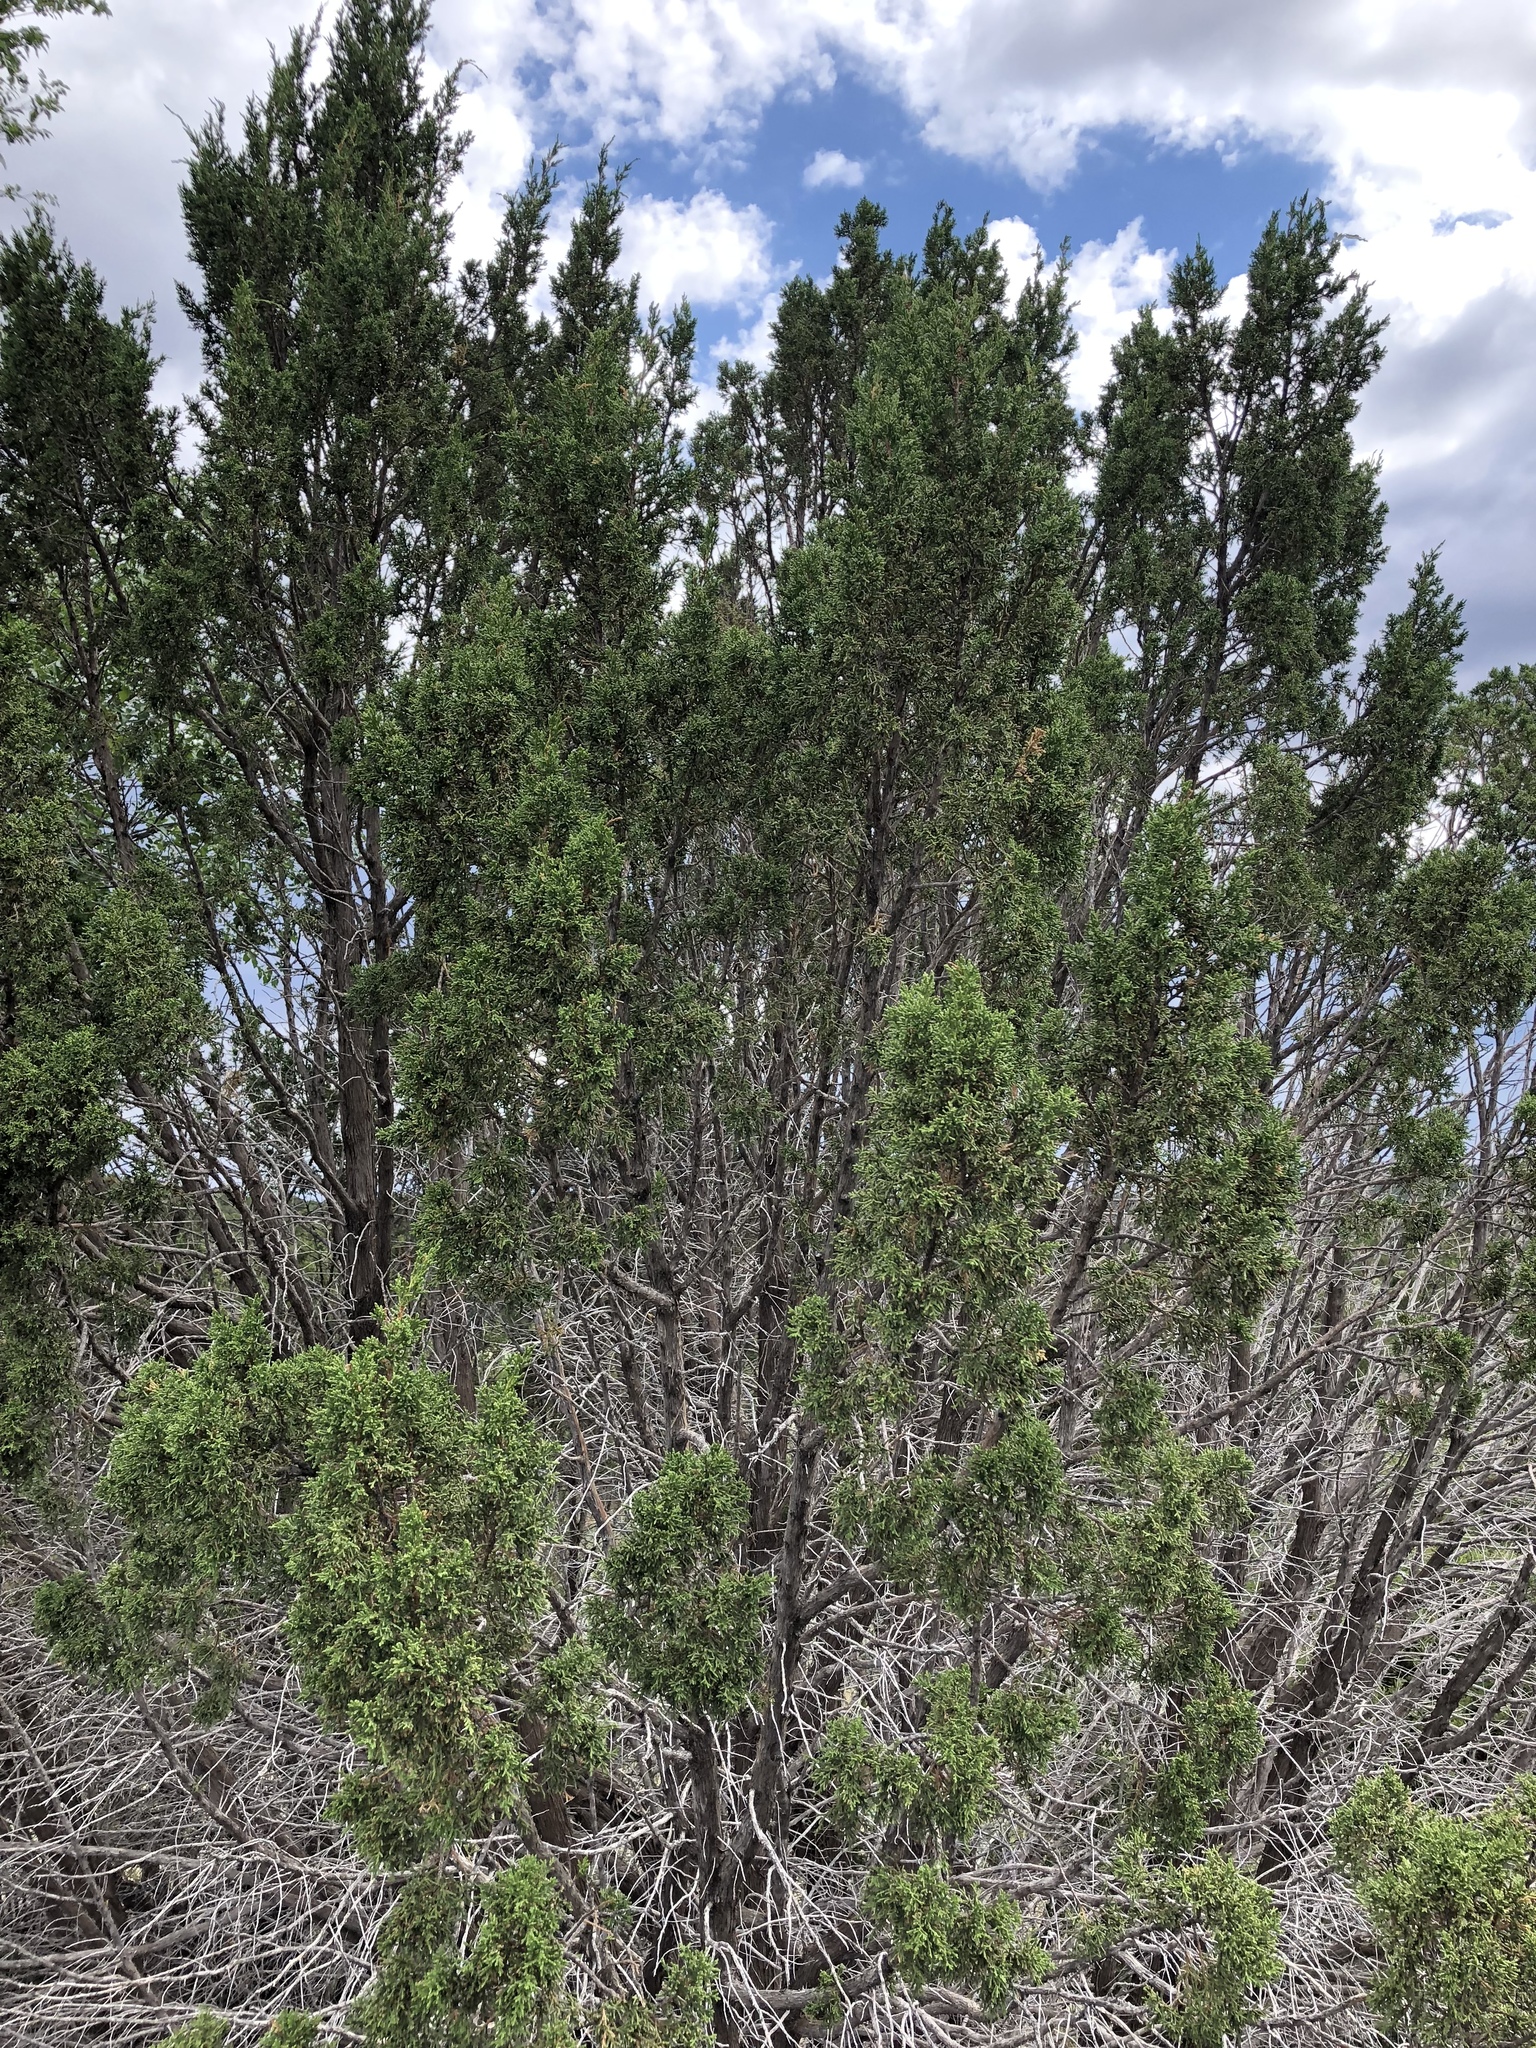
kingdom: Plantae
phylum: Tracheophyta
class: Pinopsida
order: Pinales
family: Cupressaceae
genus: Juniperus
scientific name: Juniperus monosperma
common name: One-seed juniper
